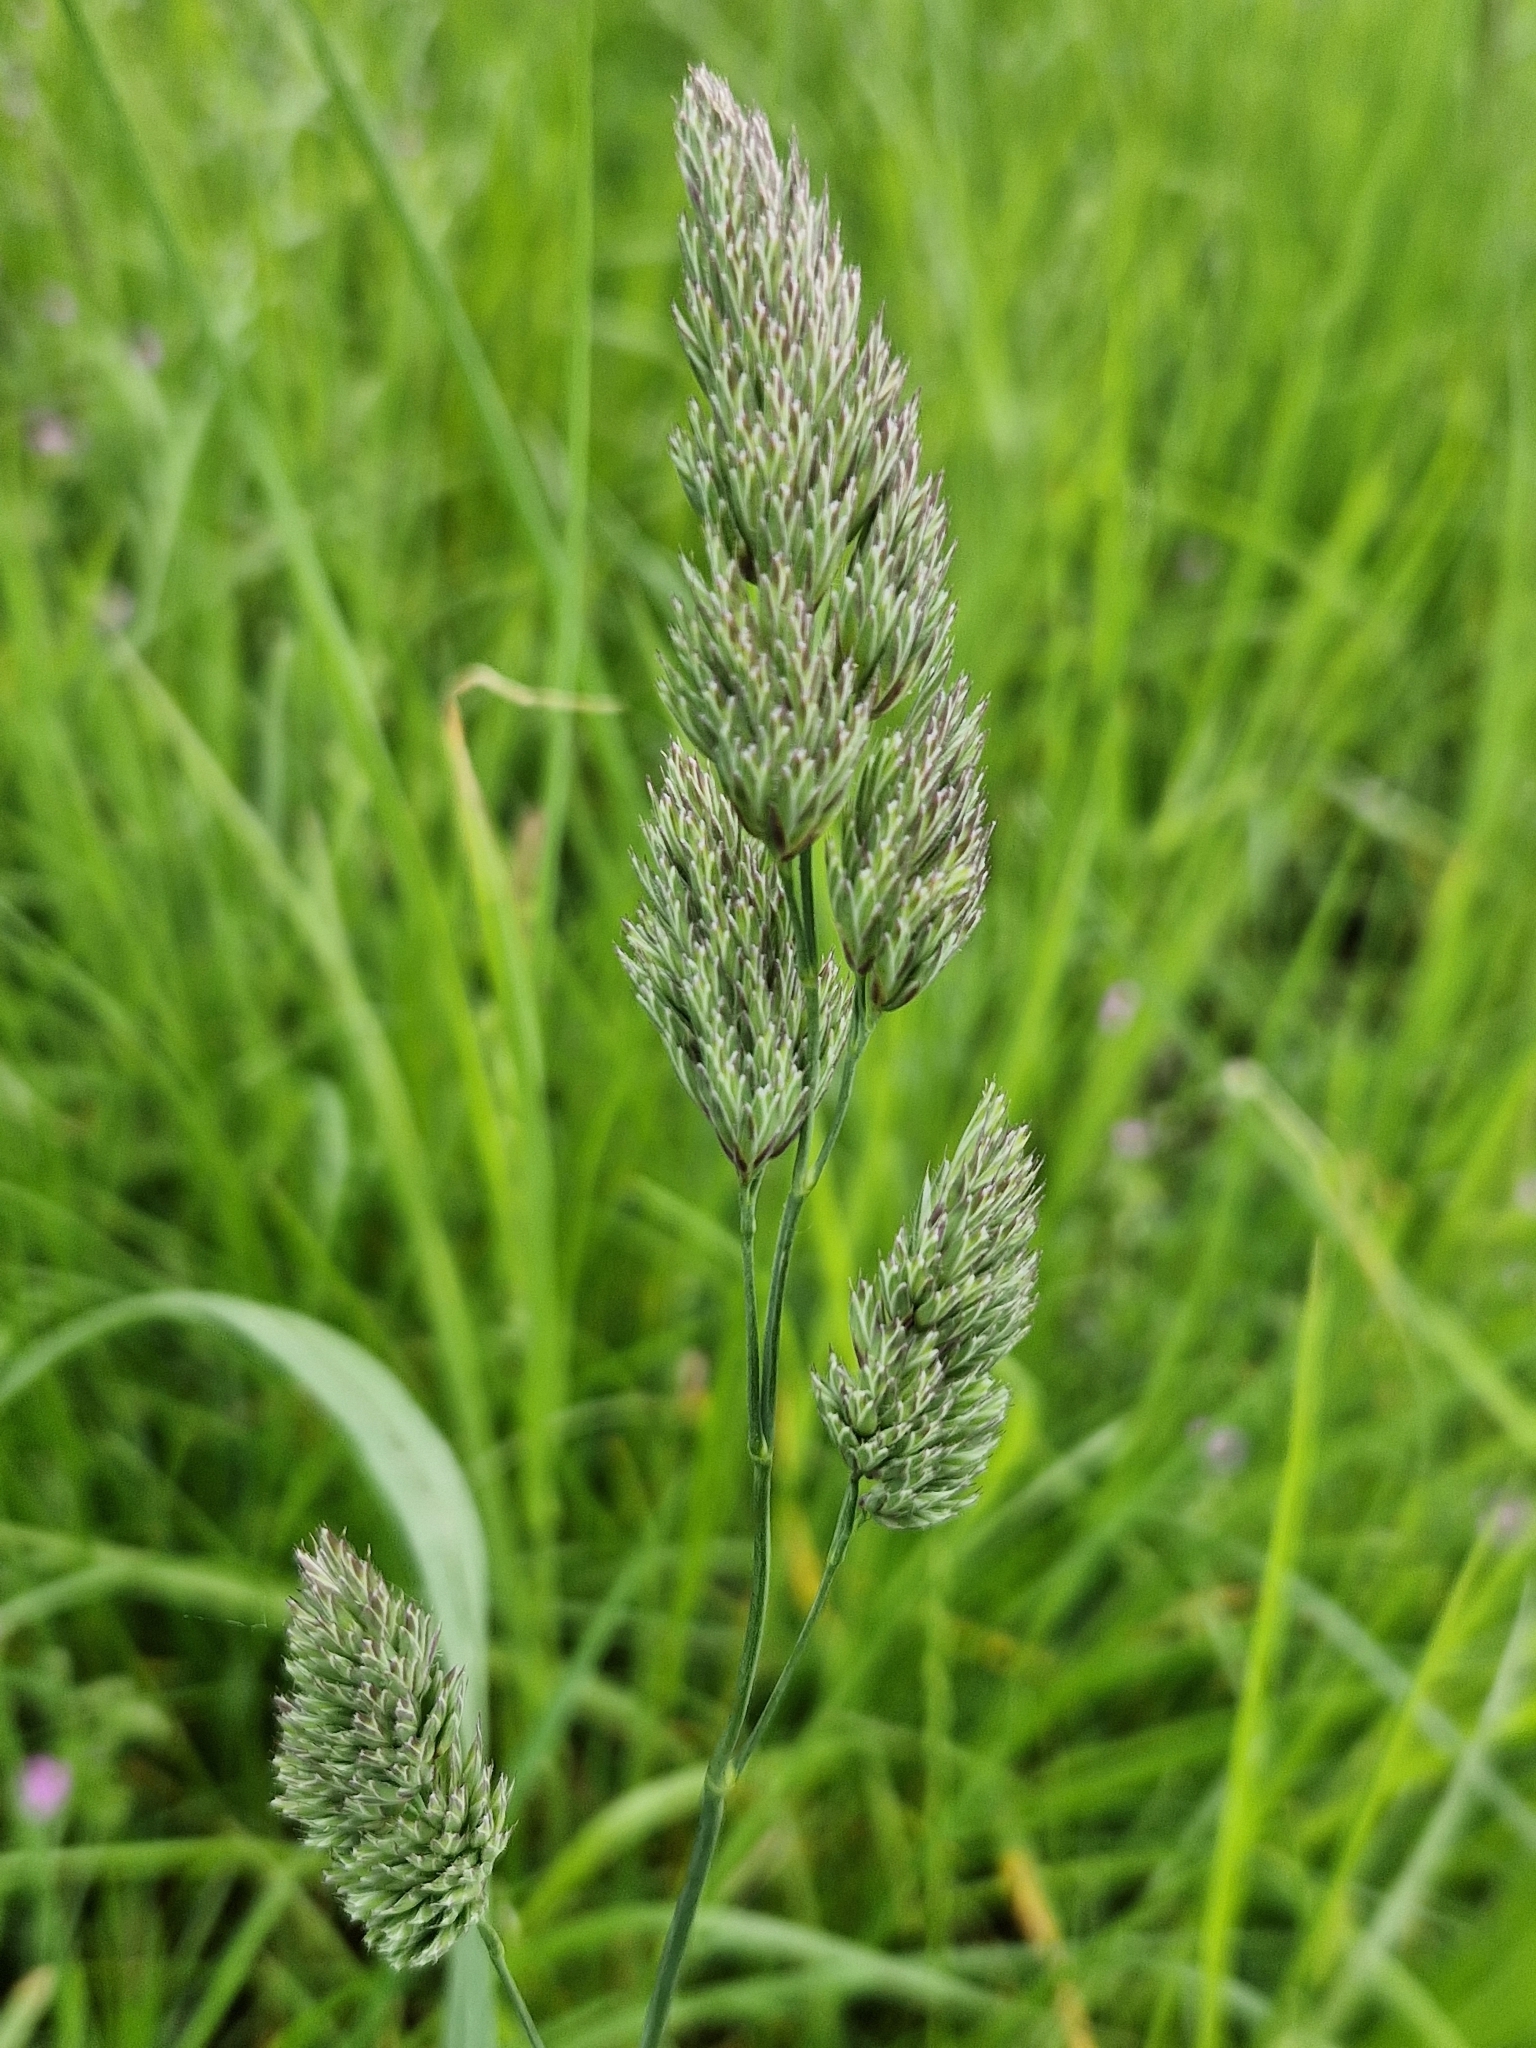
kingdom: Plantae
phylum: Tracheophyta
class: Liliopsida
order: Poales
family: Poaceae
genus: Dactylis
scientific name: Dactylis glomerata
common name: Orchardgrass
